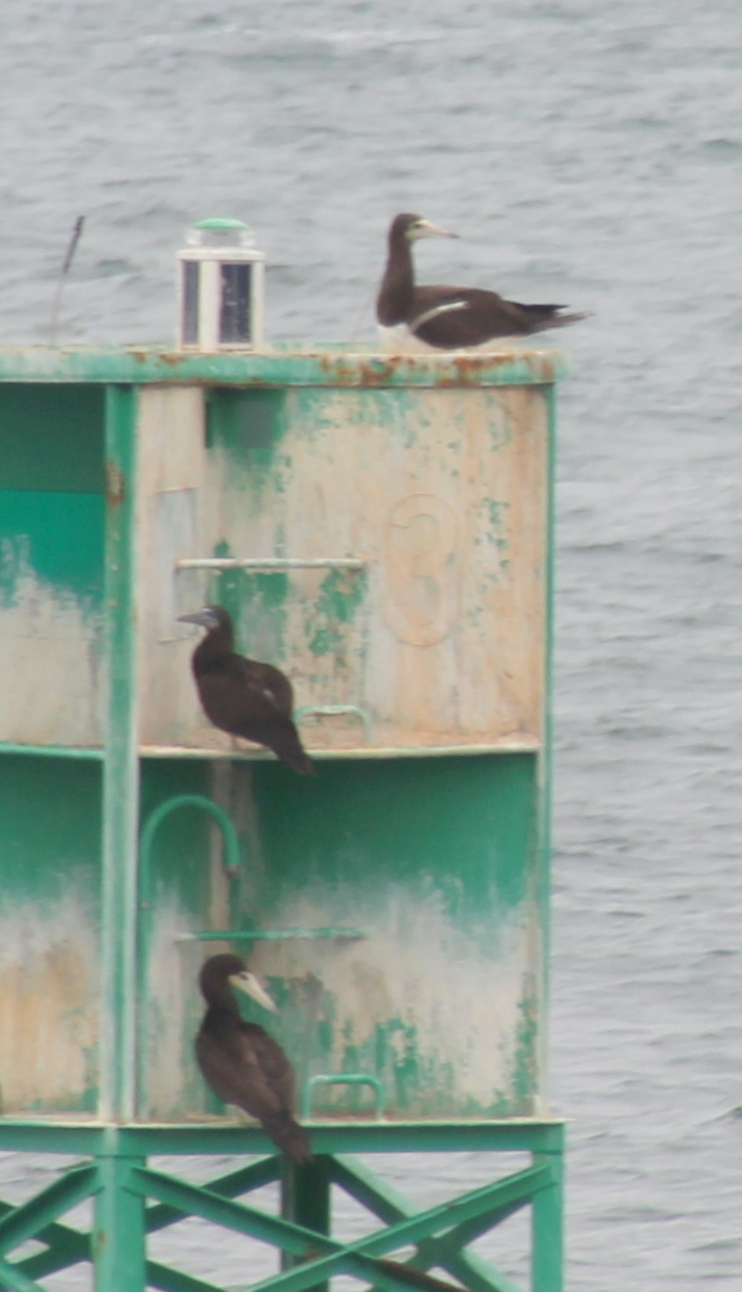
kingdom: Animalia
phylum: Chordata
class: Aves
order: Suliformes
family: Sulidae
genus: Sula
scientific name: Sula leucogaster
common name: Brown booby
